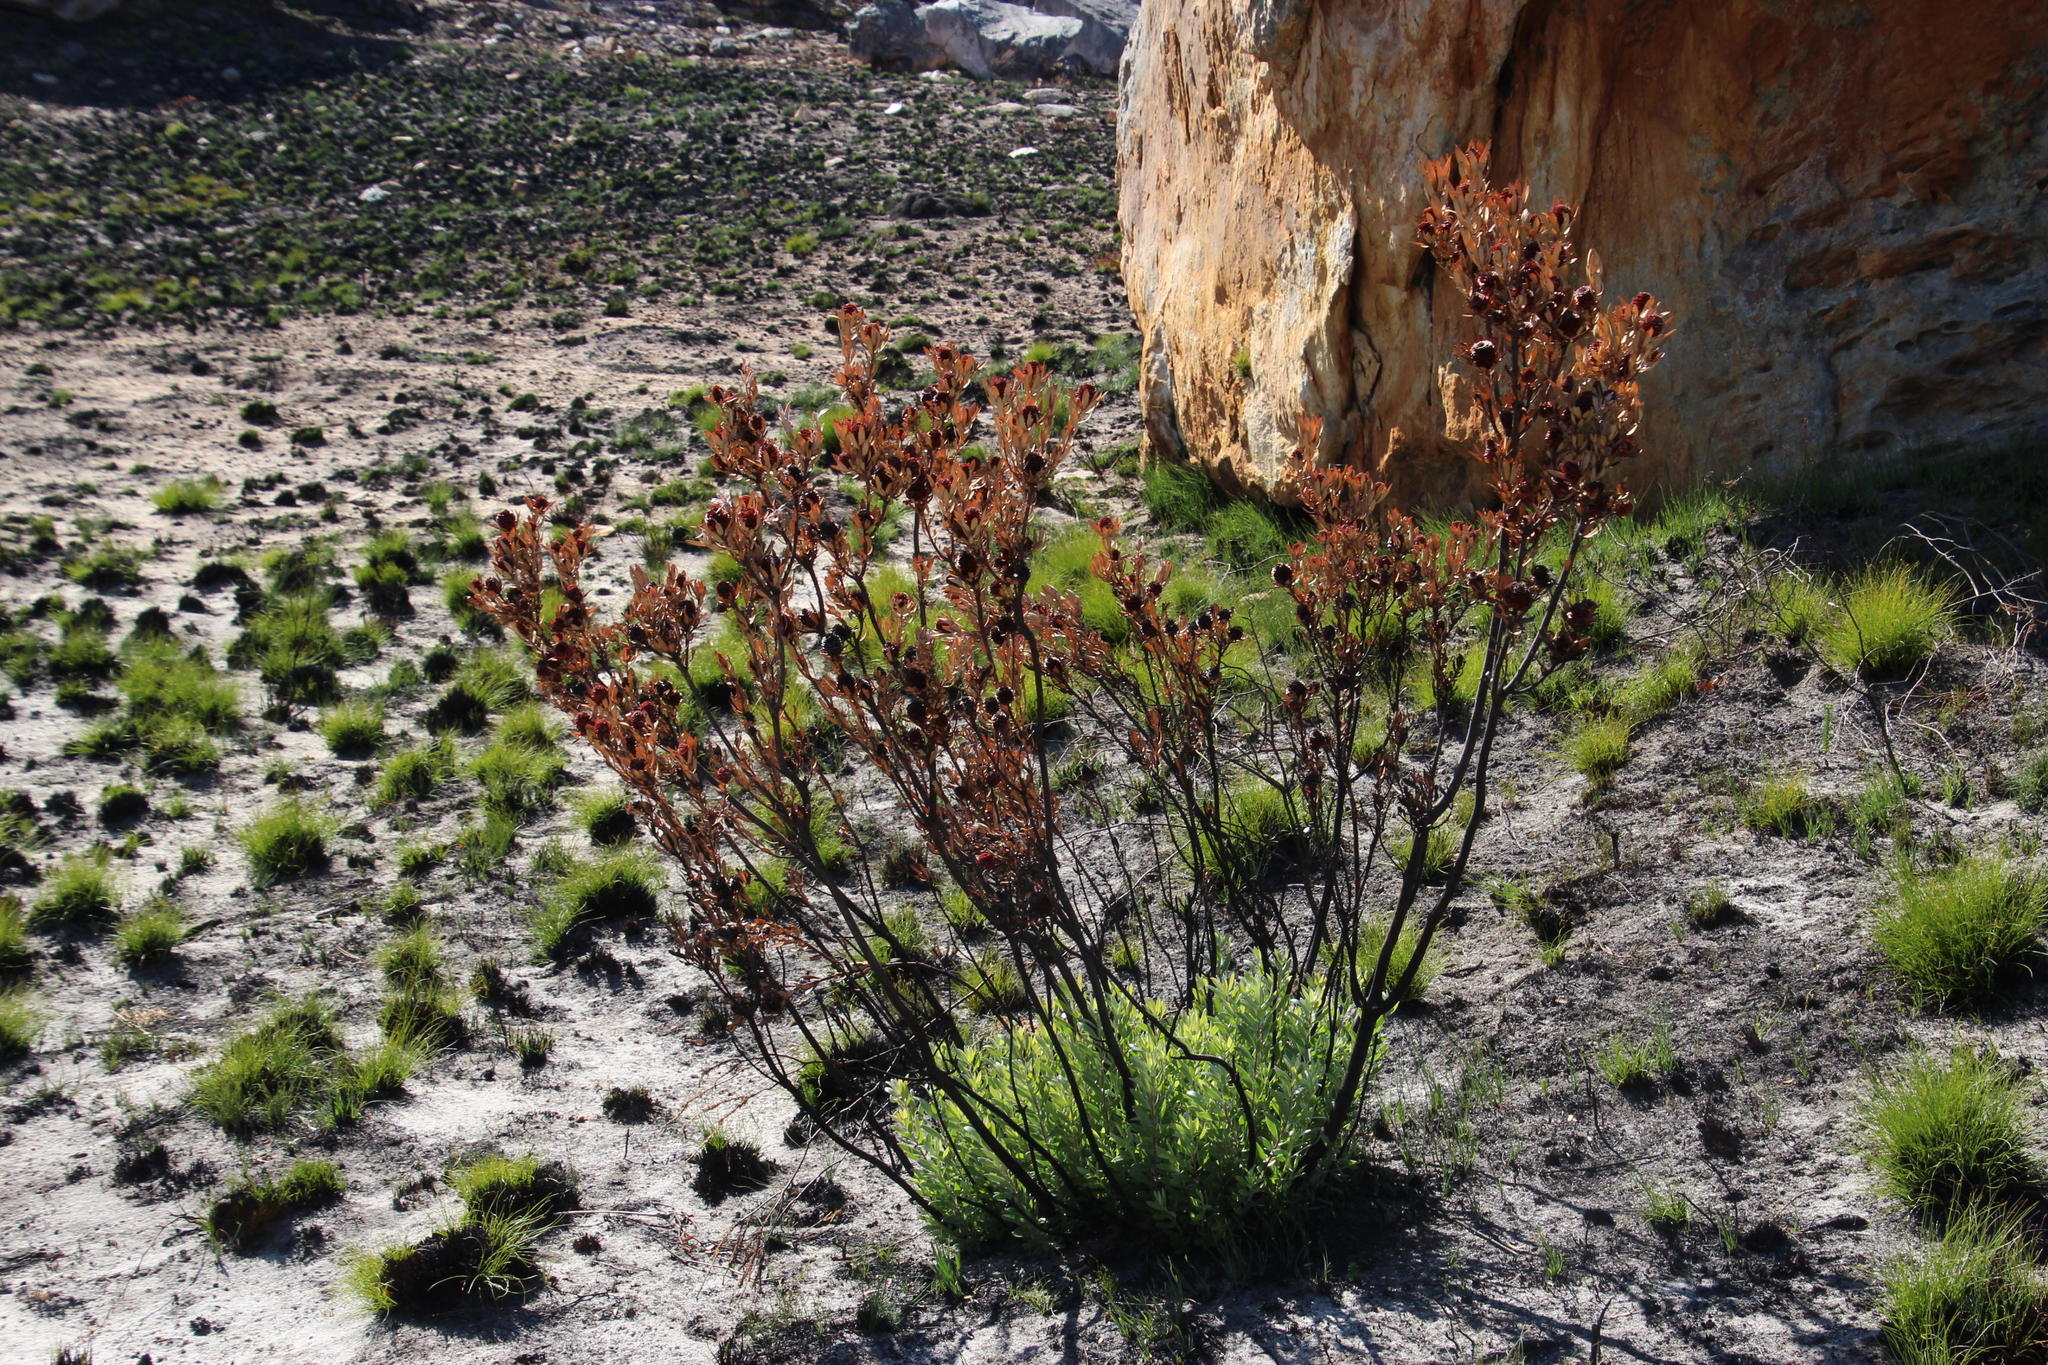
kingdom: Plantae
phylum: Tracheophyta
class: Magnoliopsida
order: Proteales
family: Proteaceae
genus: Leucadendron
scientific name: Leucadendron spissifolium
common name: Spear-leaf conebush
